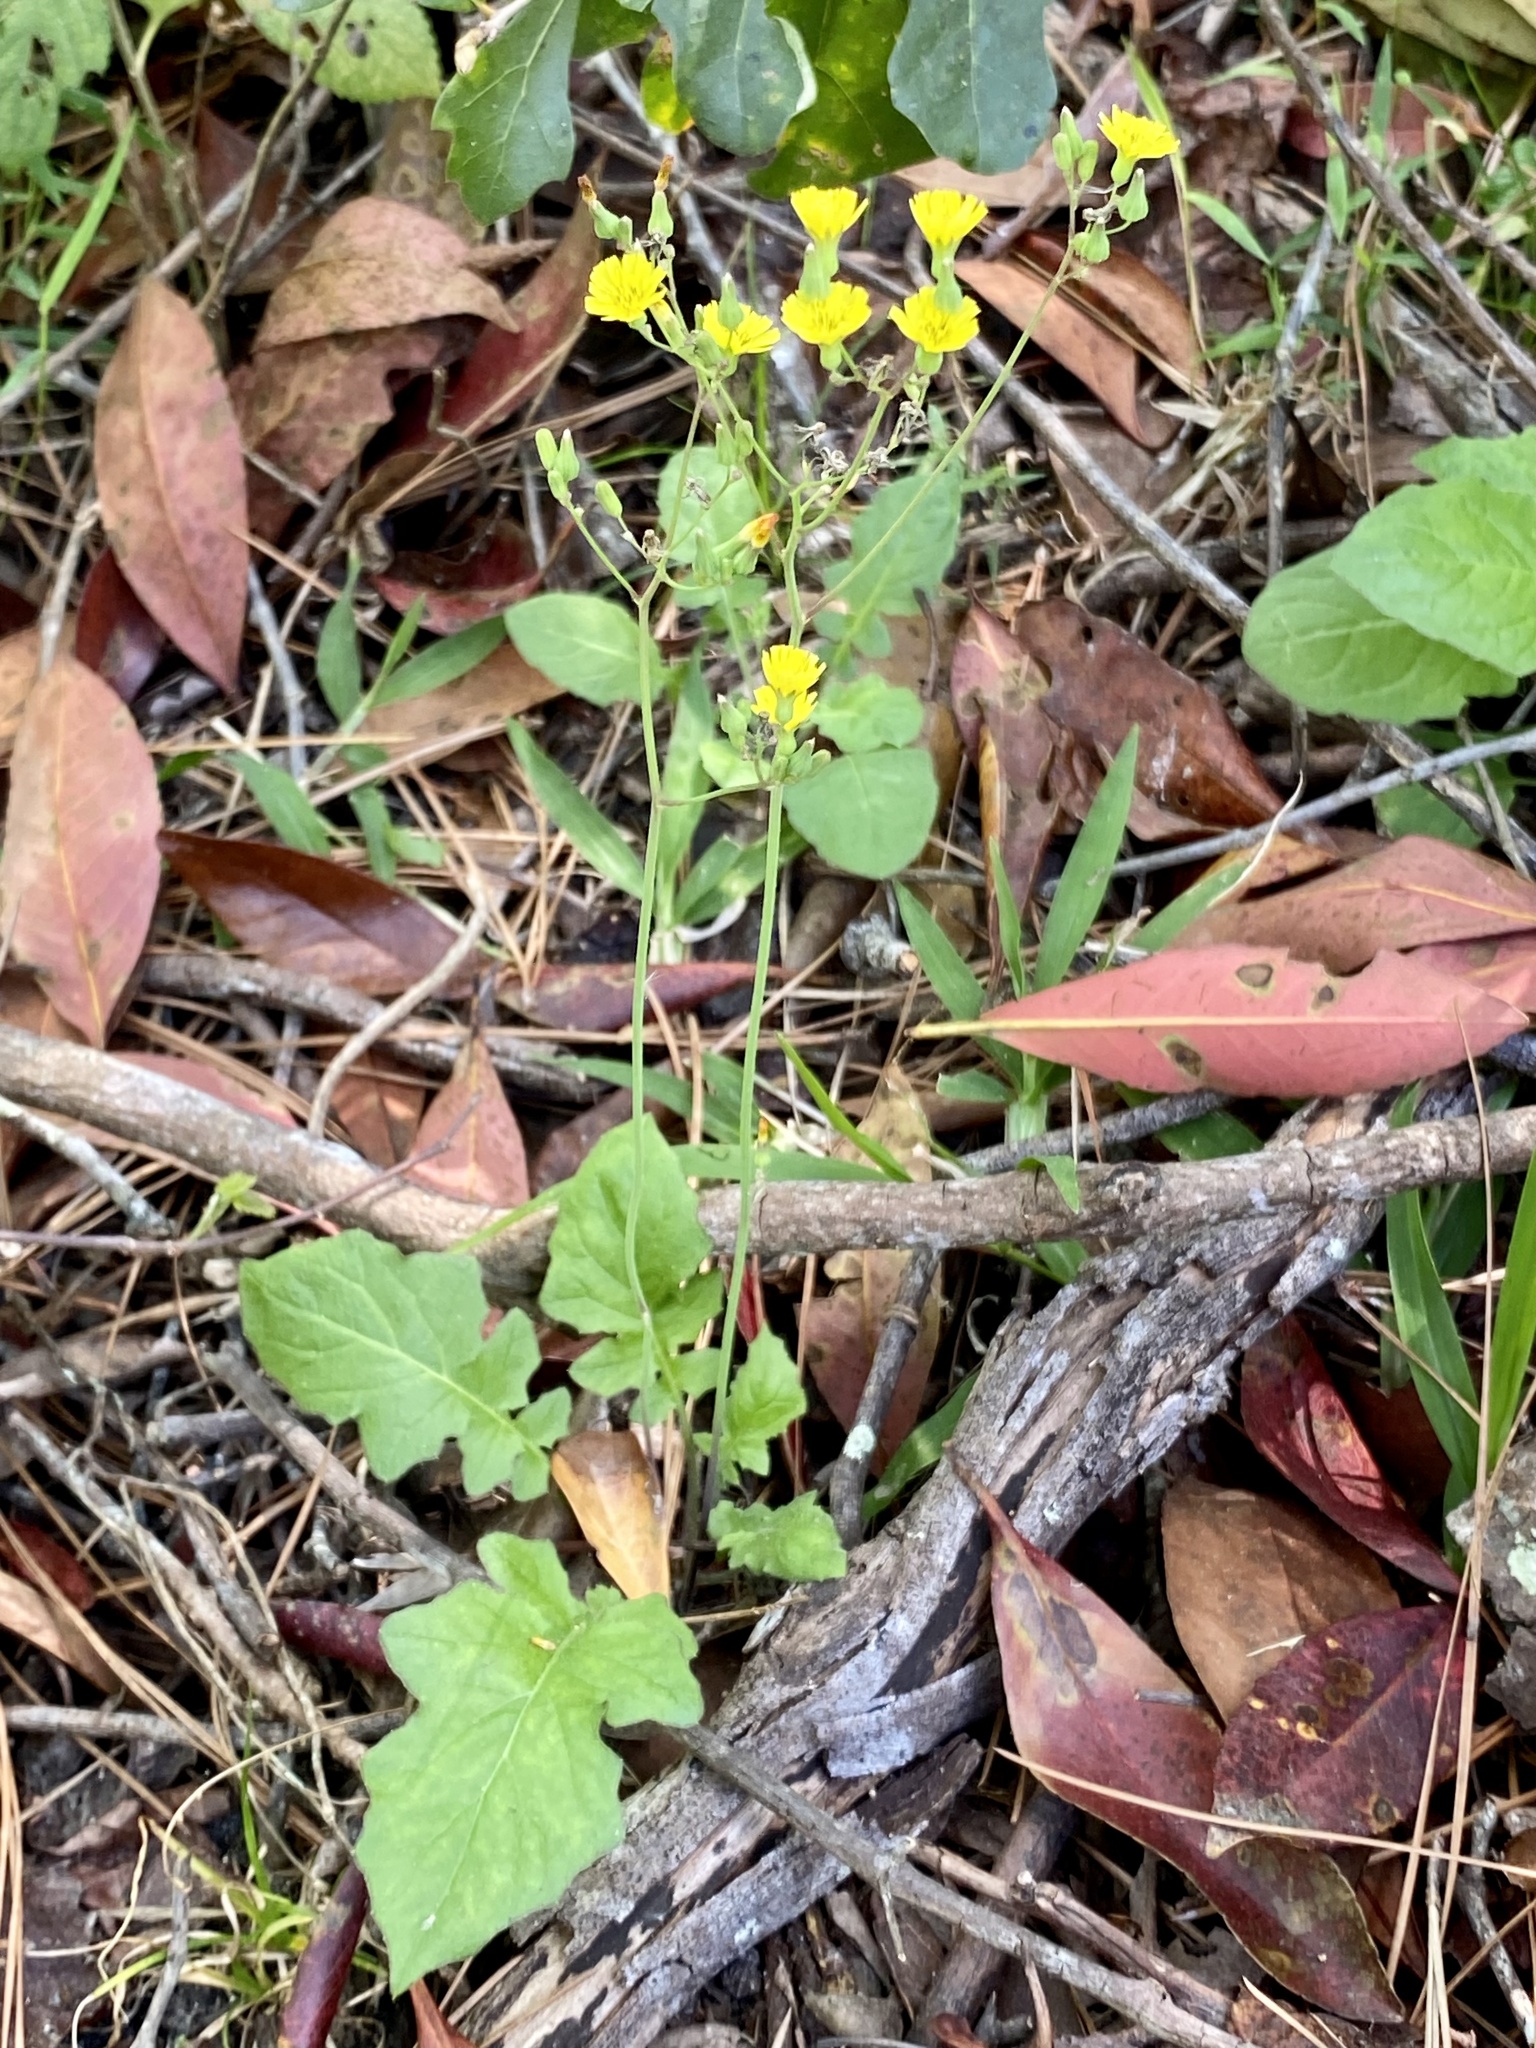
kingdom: Plantae
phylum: Tracheophyta
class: Magnoliopsida
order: Asterales
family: Asteraceae
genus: Youngia
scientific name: Youngia japonica
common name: Oriental false hawksbeard
